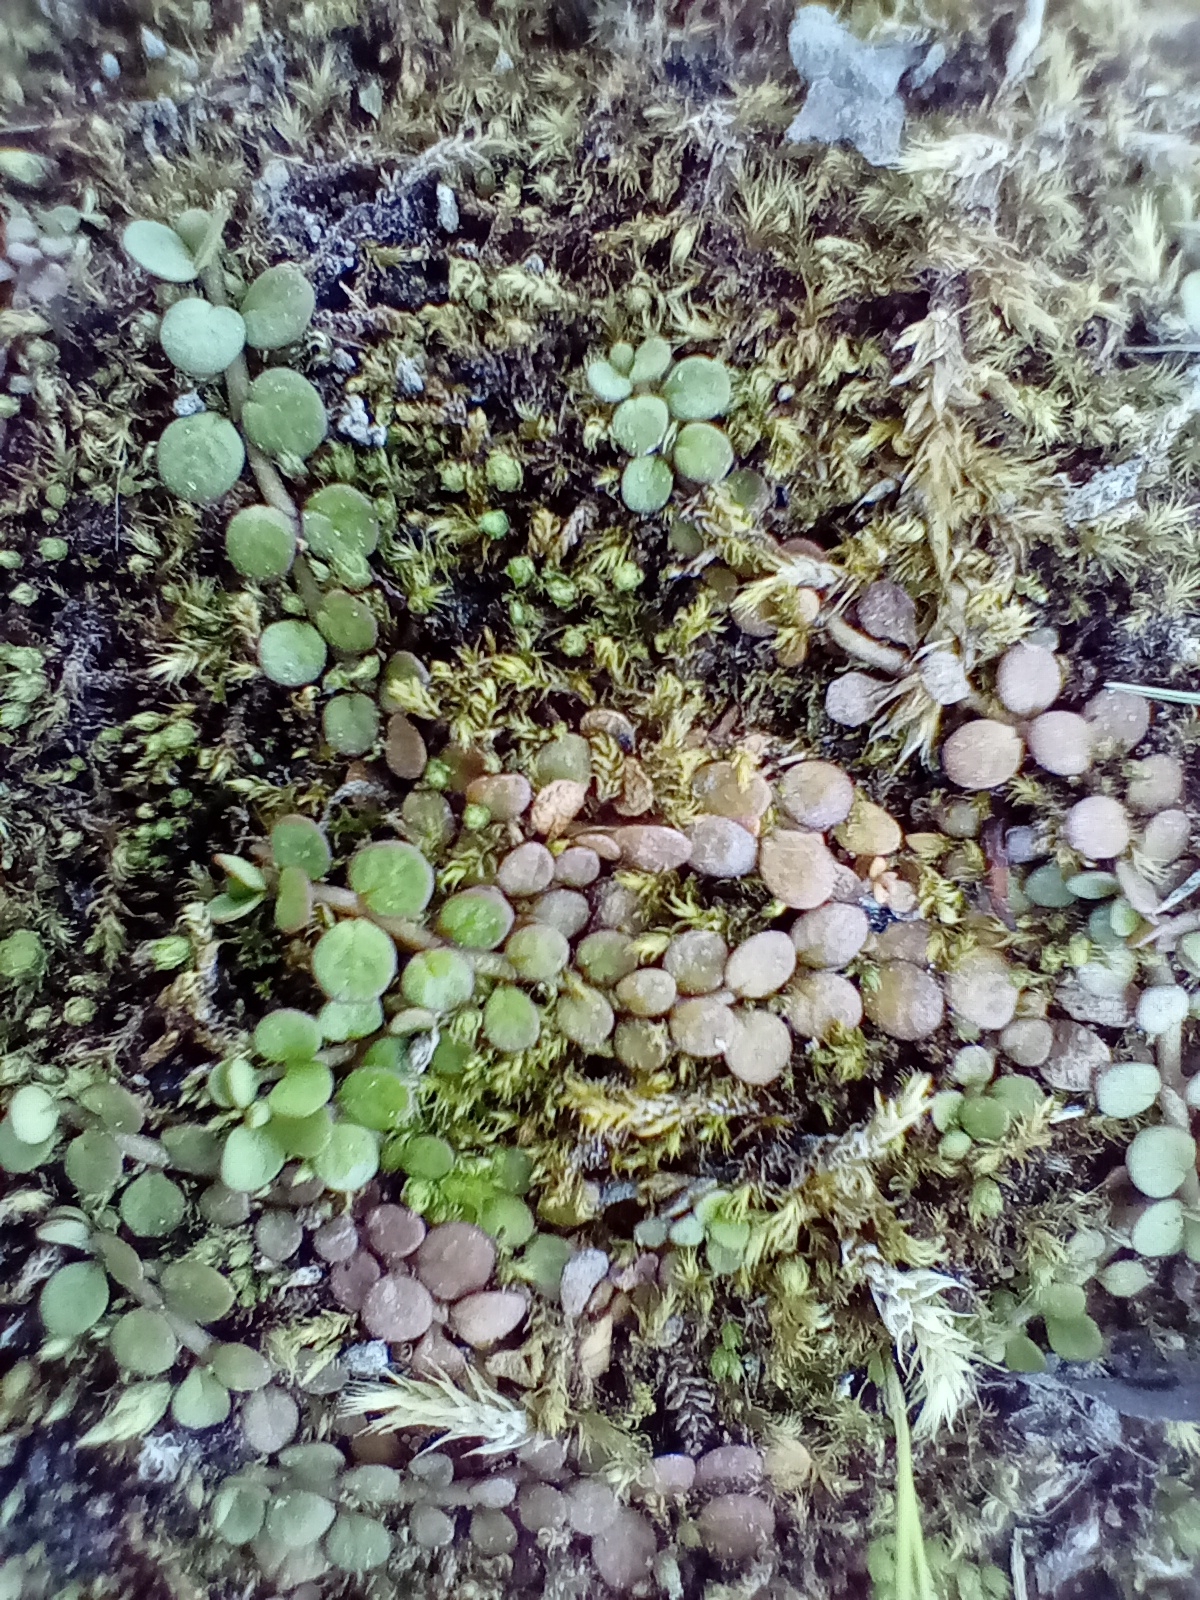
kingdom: Plantae
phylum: Tracheophyta
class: Magnoliopsida
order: Myrtales
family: Onagraceae
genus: Epilobium
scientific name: Epilobium komarovianum
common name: Bronzy willowherb
